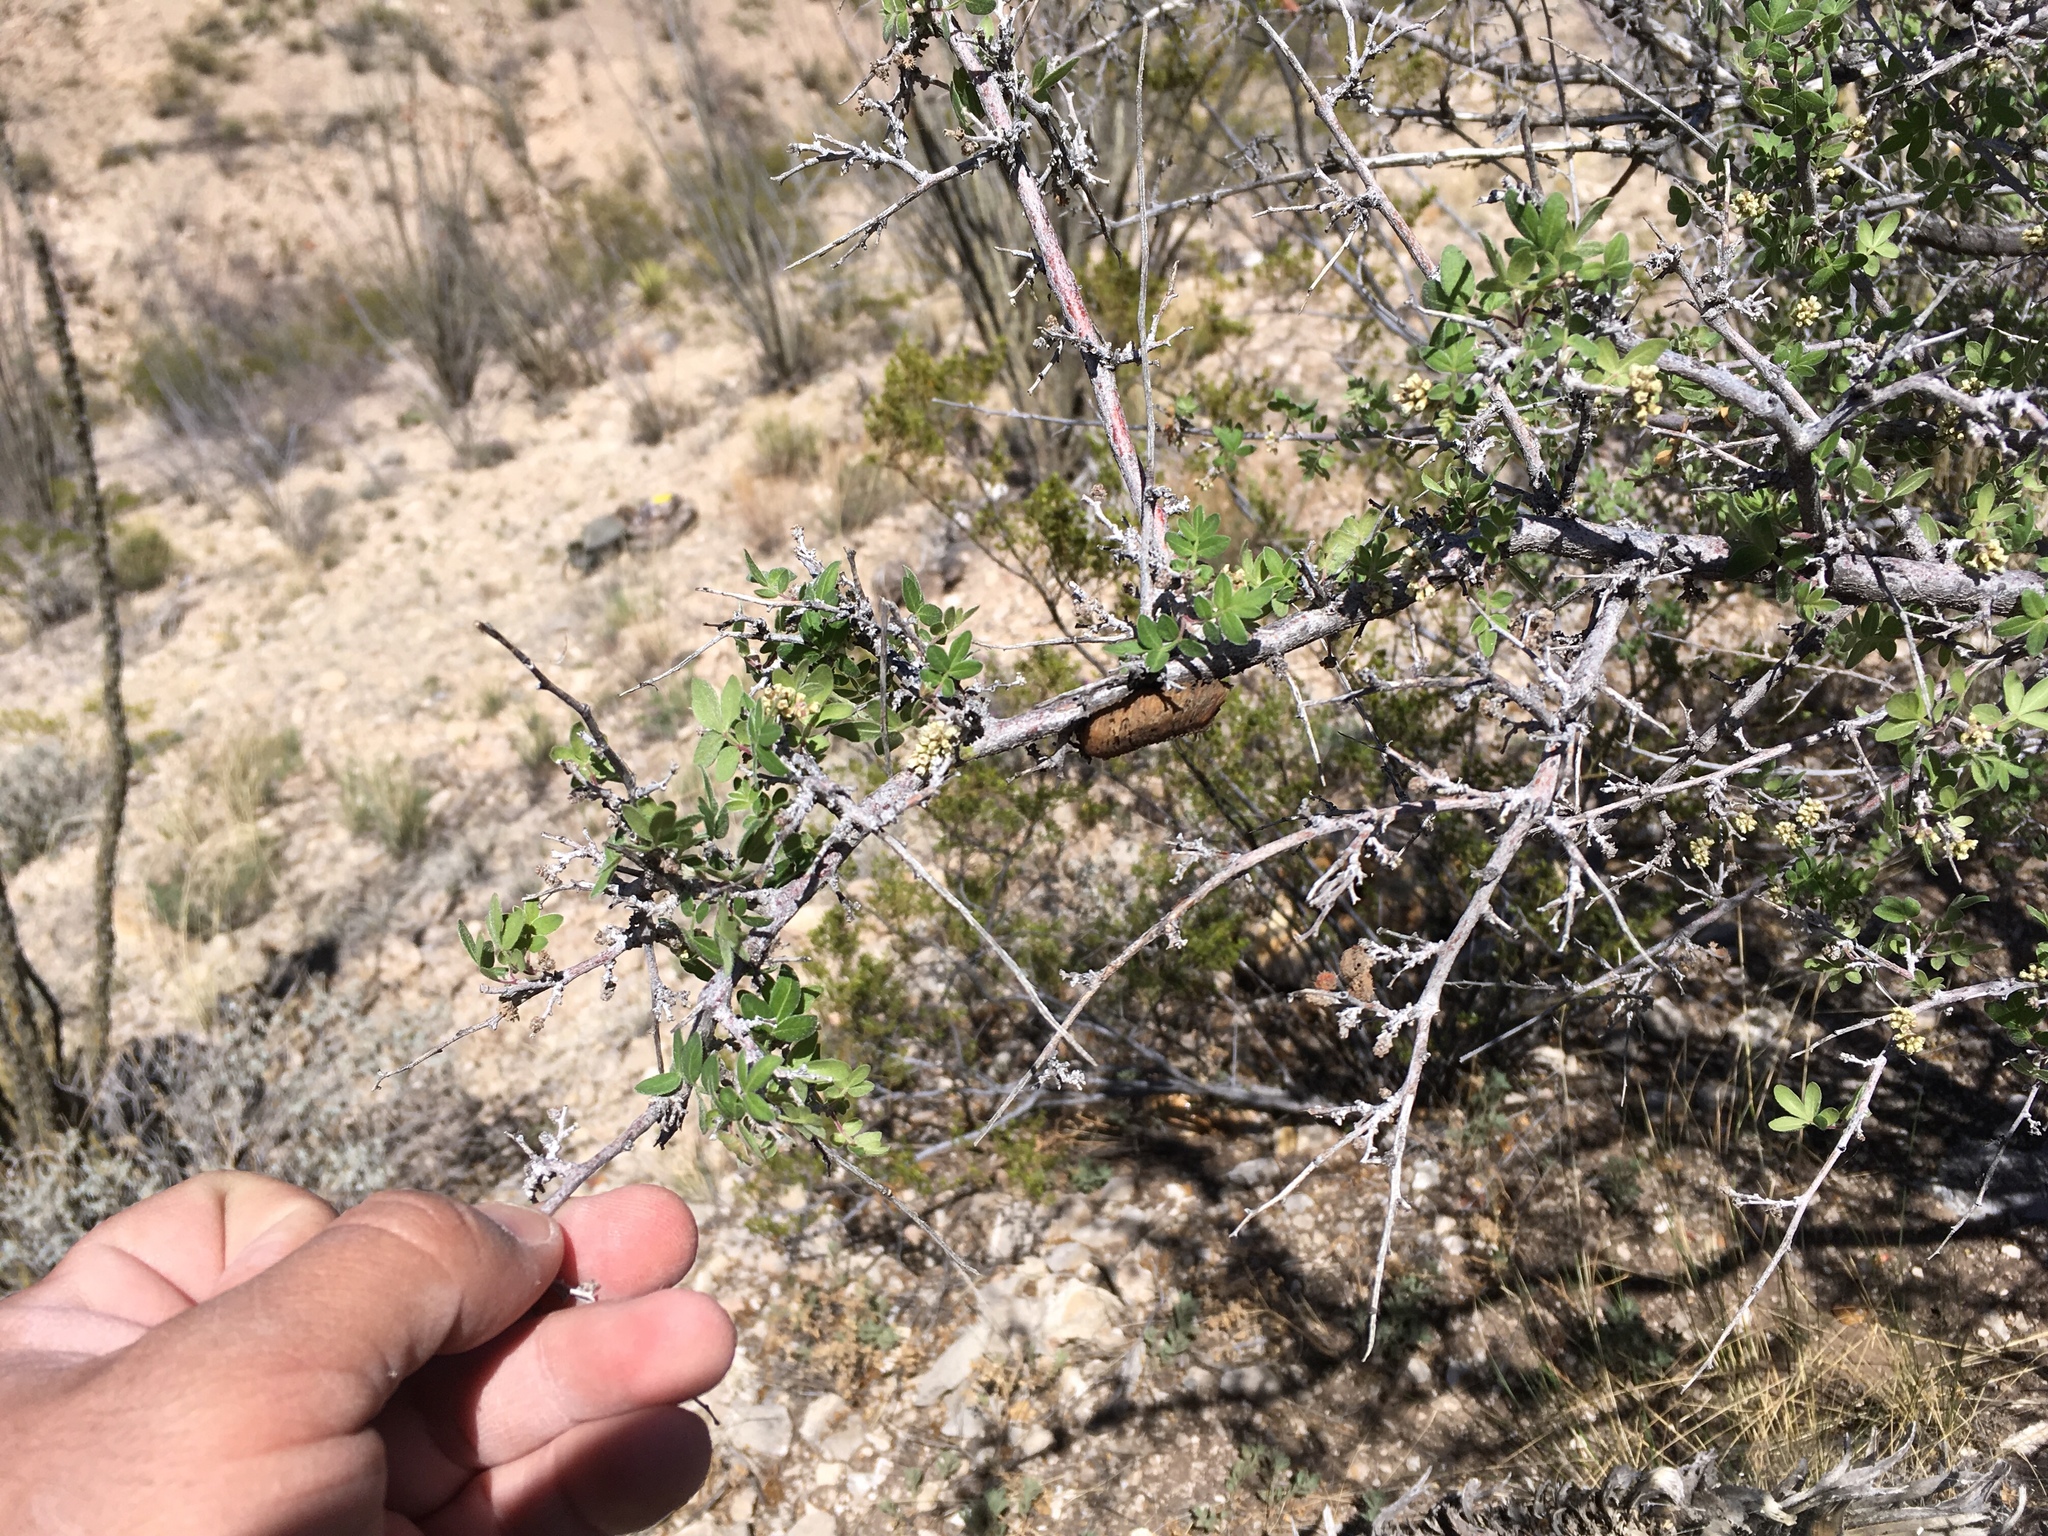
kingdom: Plantae
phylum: Tracheophyta
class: Magnoliopsida
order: Sapindales
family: Anacardiaceae
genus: Rhus
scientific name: Rhus microphylla
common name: Desert sumac
